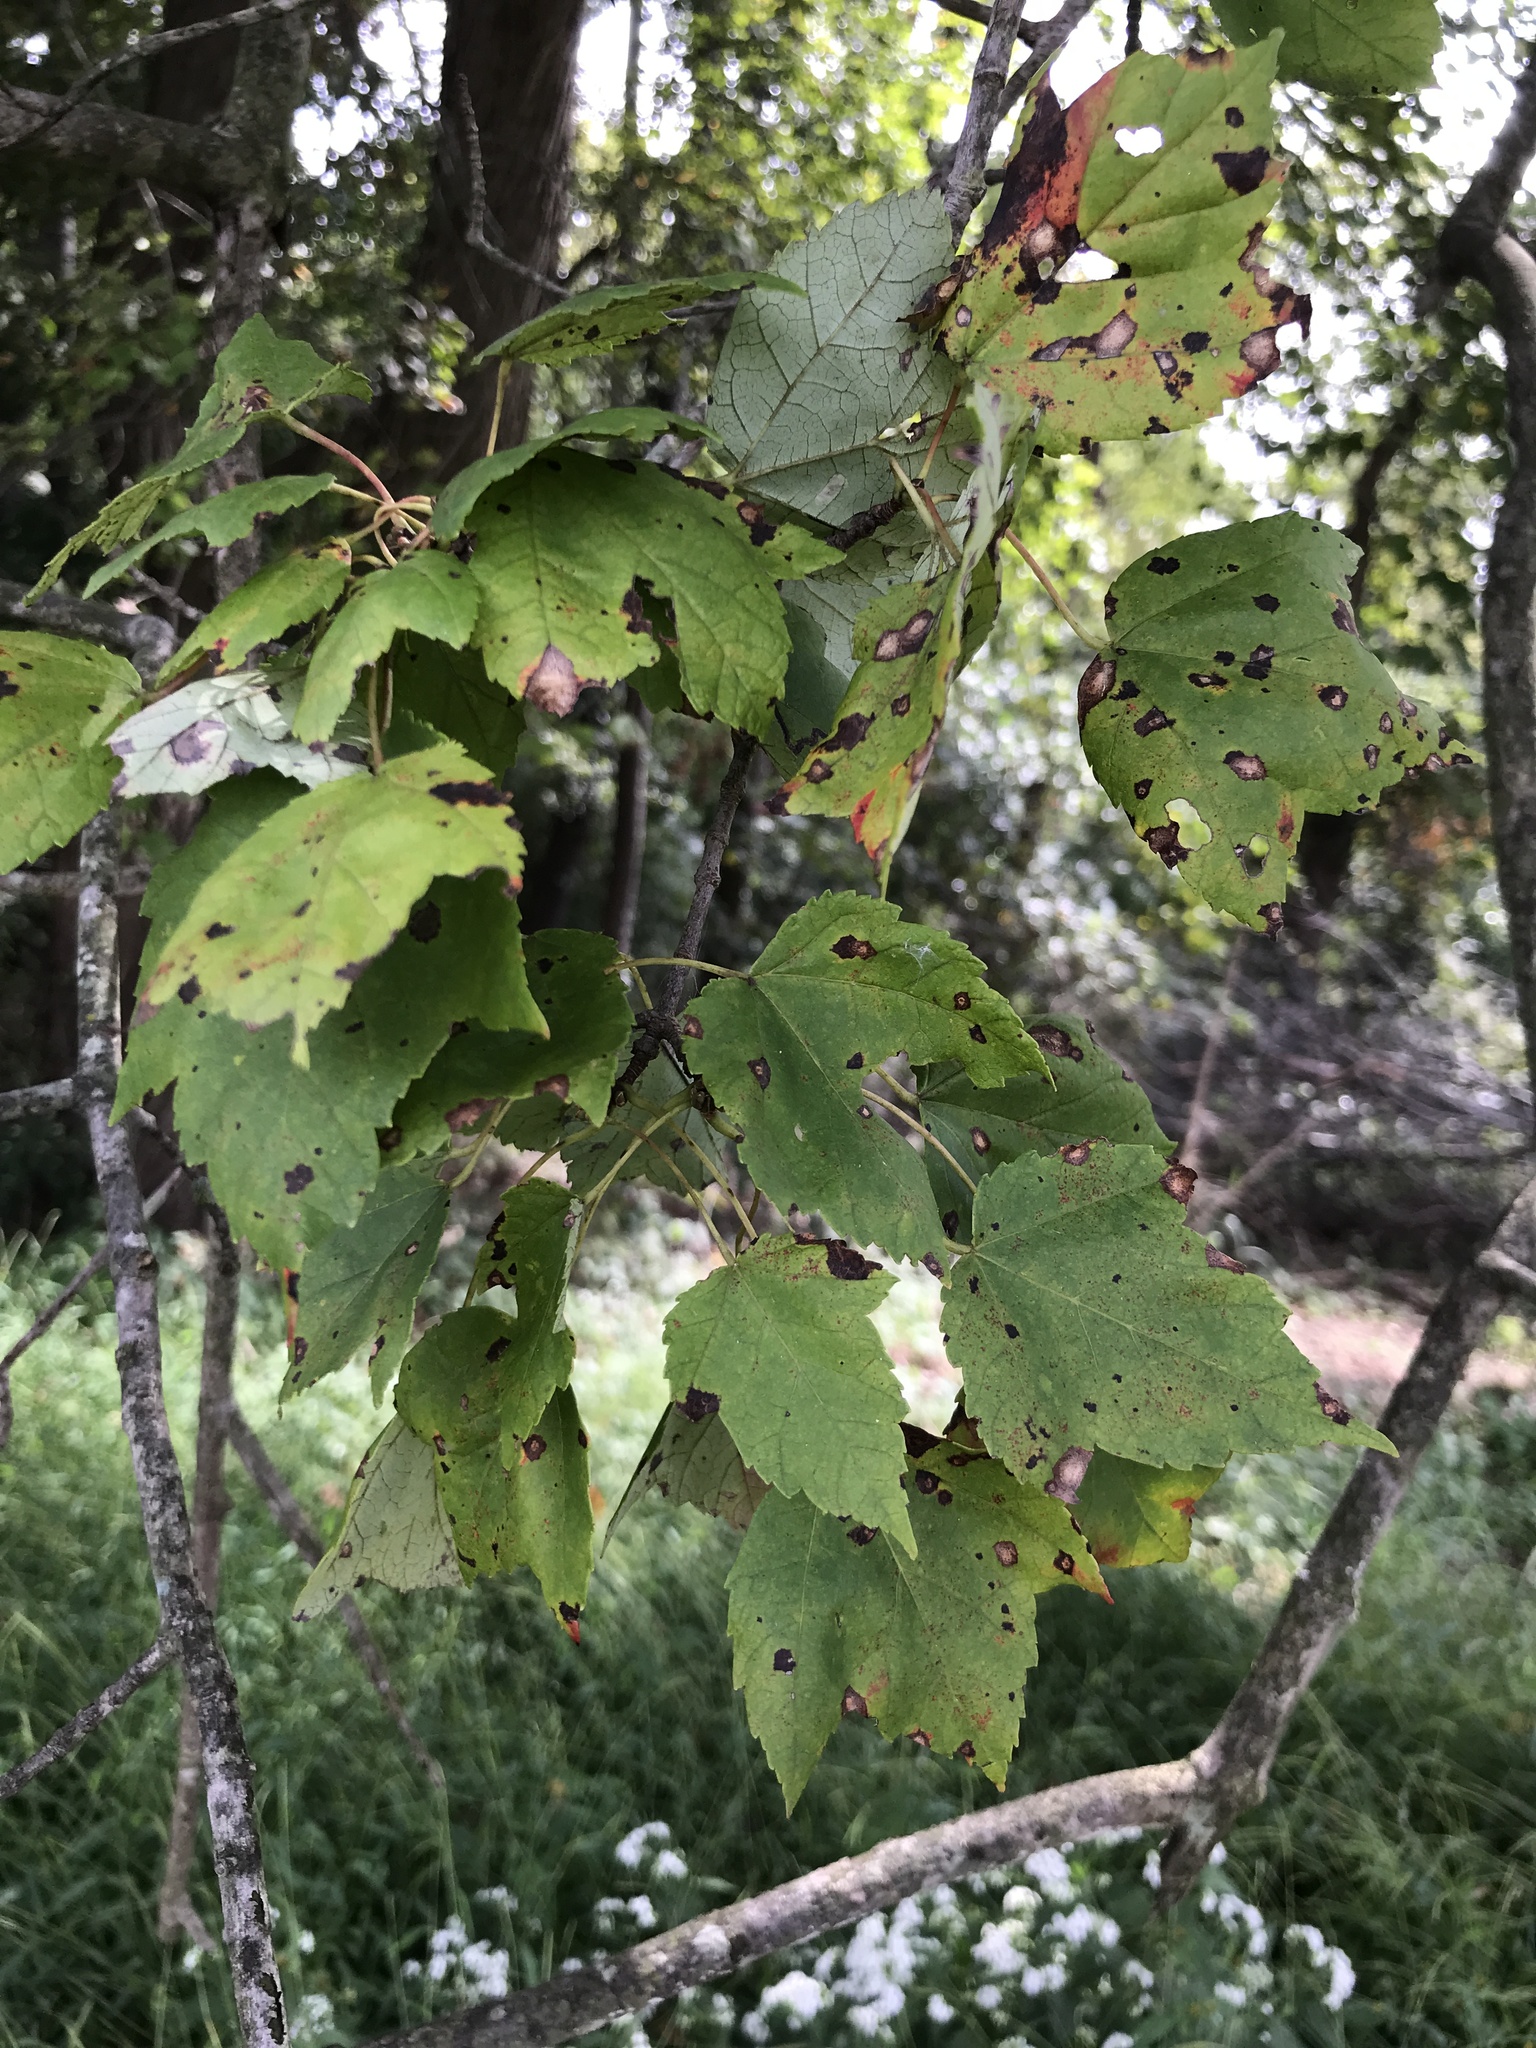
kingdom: Plantae
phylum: Tracheophyta
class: Magnoliopsida
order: Sapindales
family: Sapindaceae
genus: Acer
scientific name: Acer rubrum
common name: Red maple
